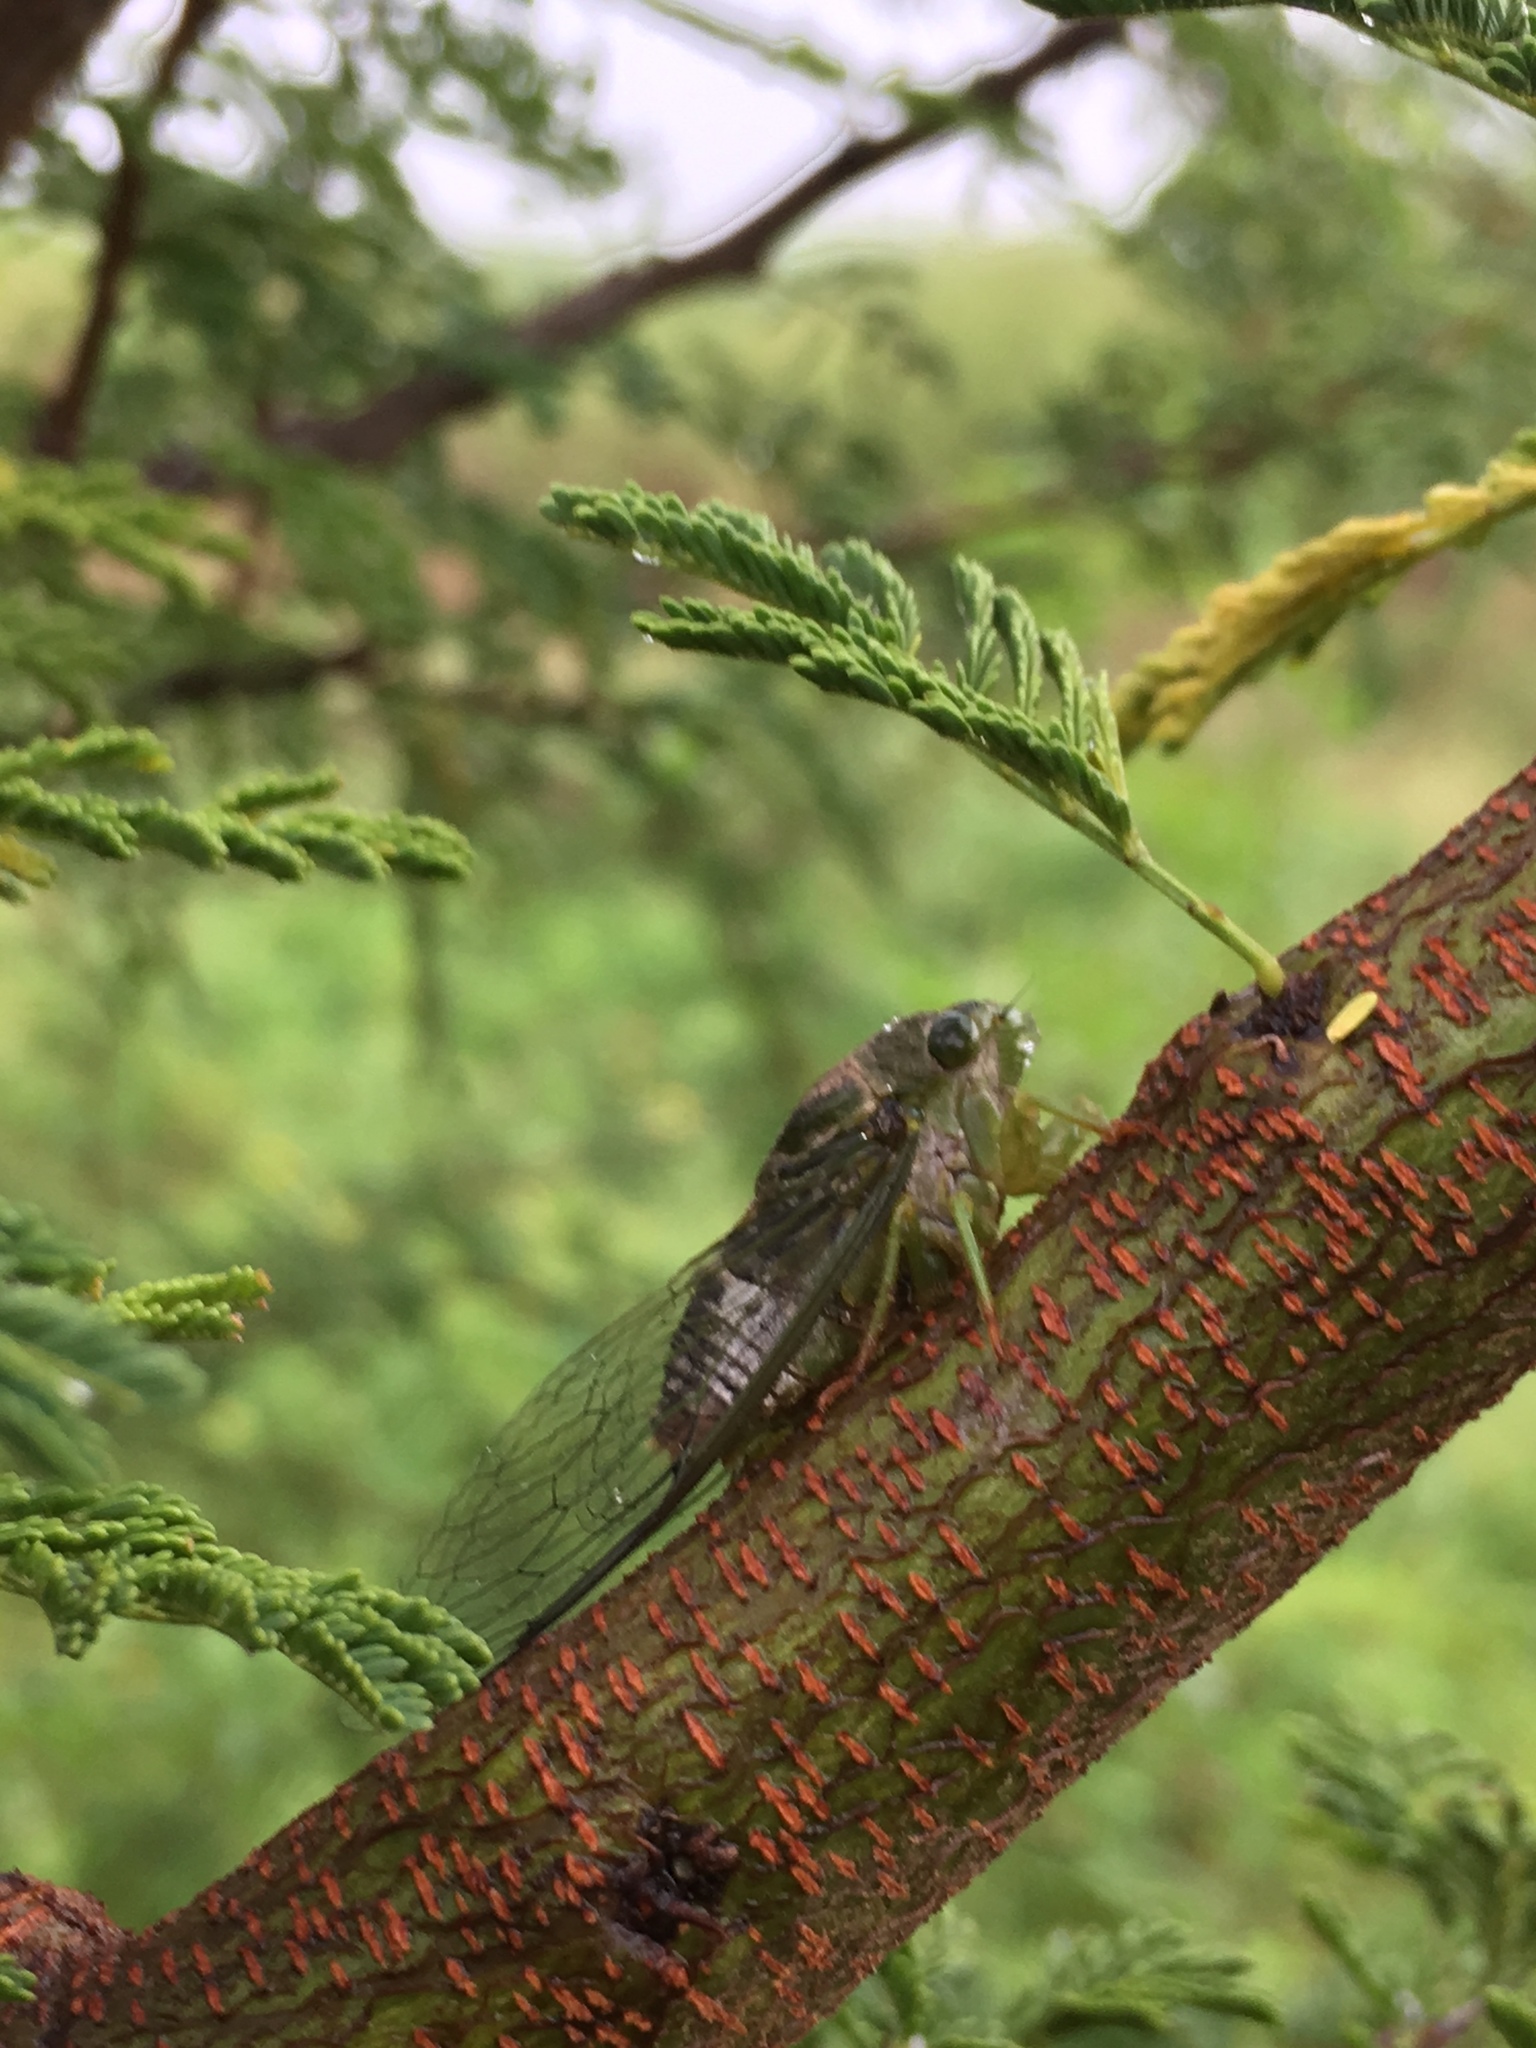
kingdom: Animalia
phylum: Arthropoda
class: Insecta
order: Hemiptera
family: Cicadidae
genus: Acanthoventris
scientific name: Acanthoventris drewseni
